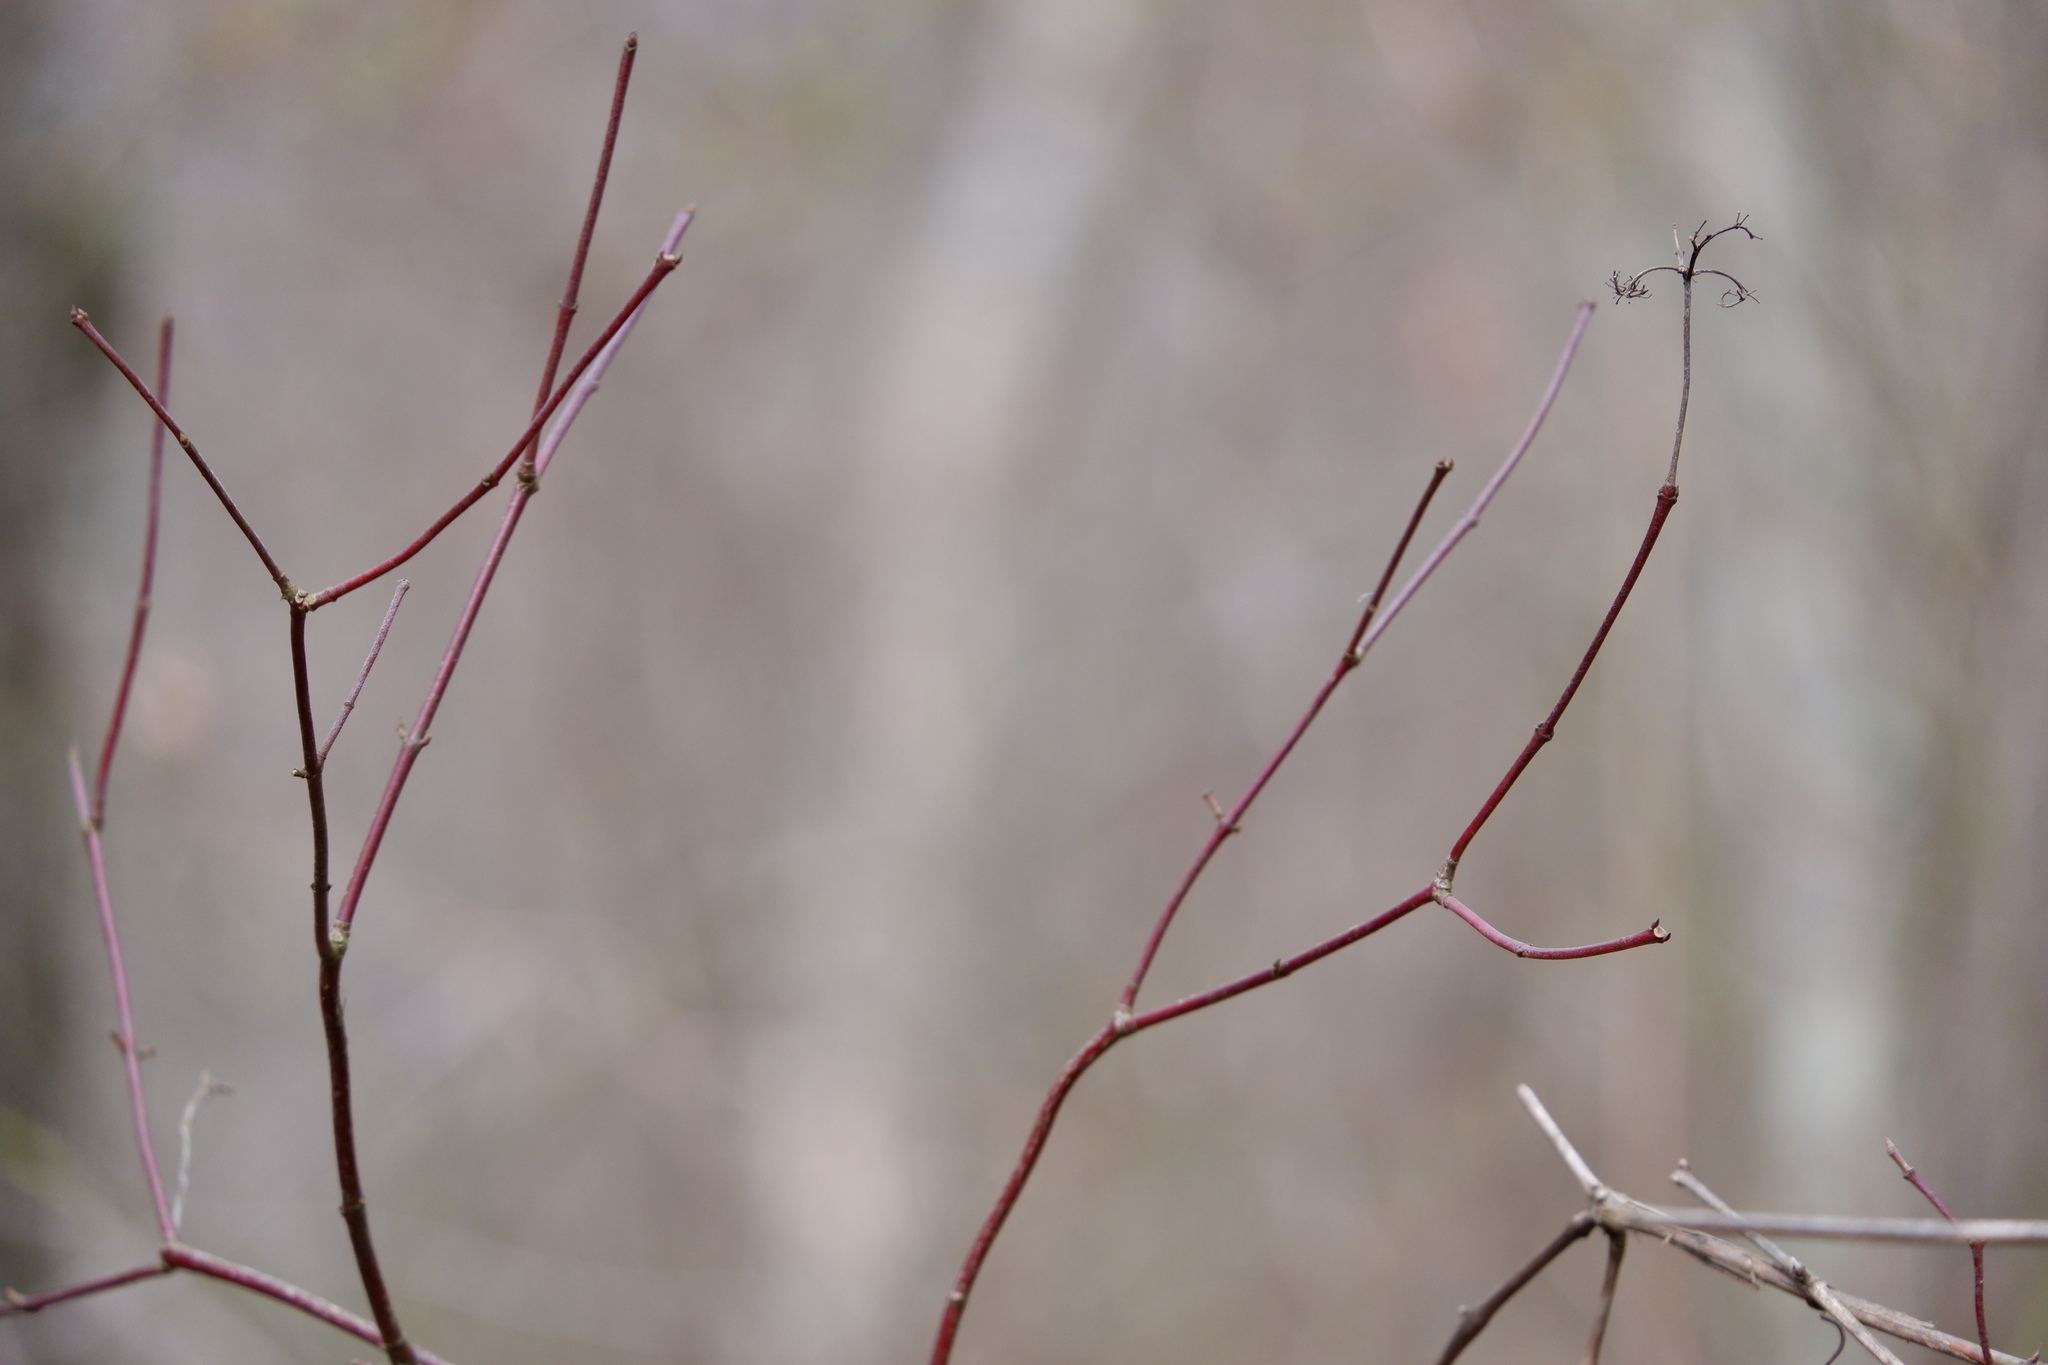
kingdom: Plantae
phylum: Tracheophyta
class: Magnoliopsida
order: Cornales
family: Cornaceae
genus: Cornus
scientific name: Cornus amomum
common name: Silky dogwood
